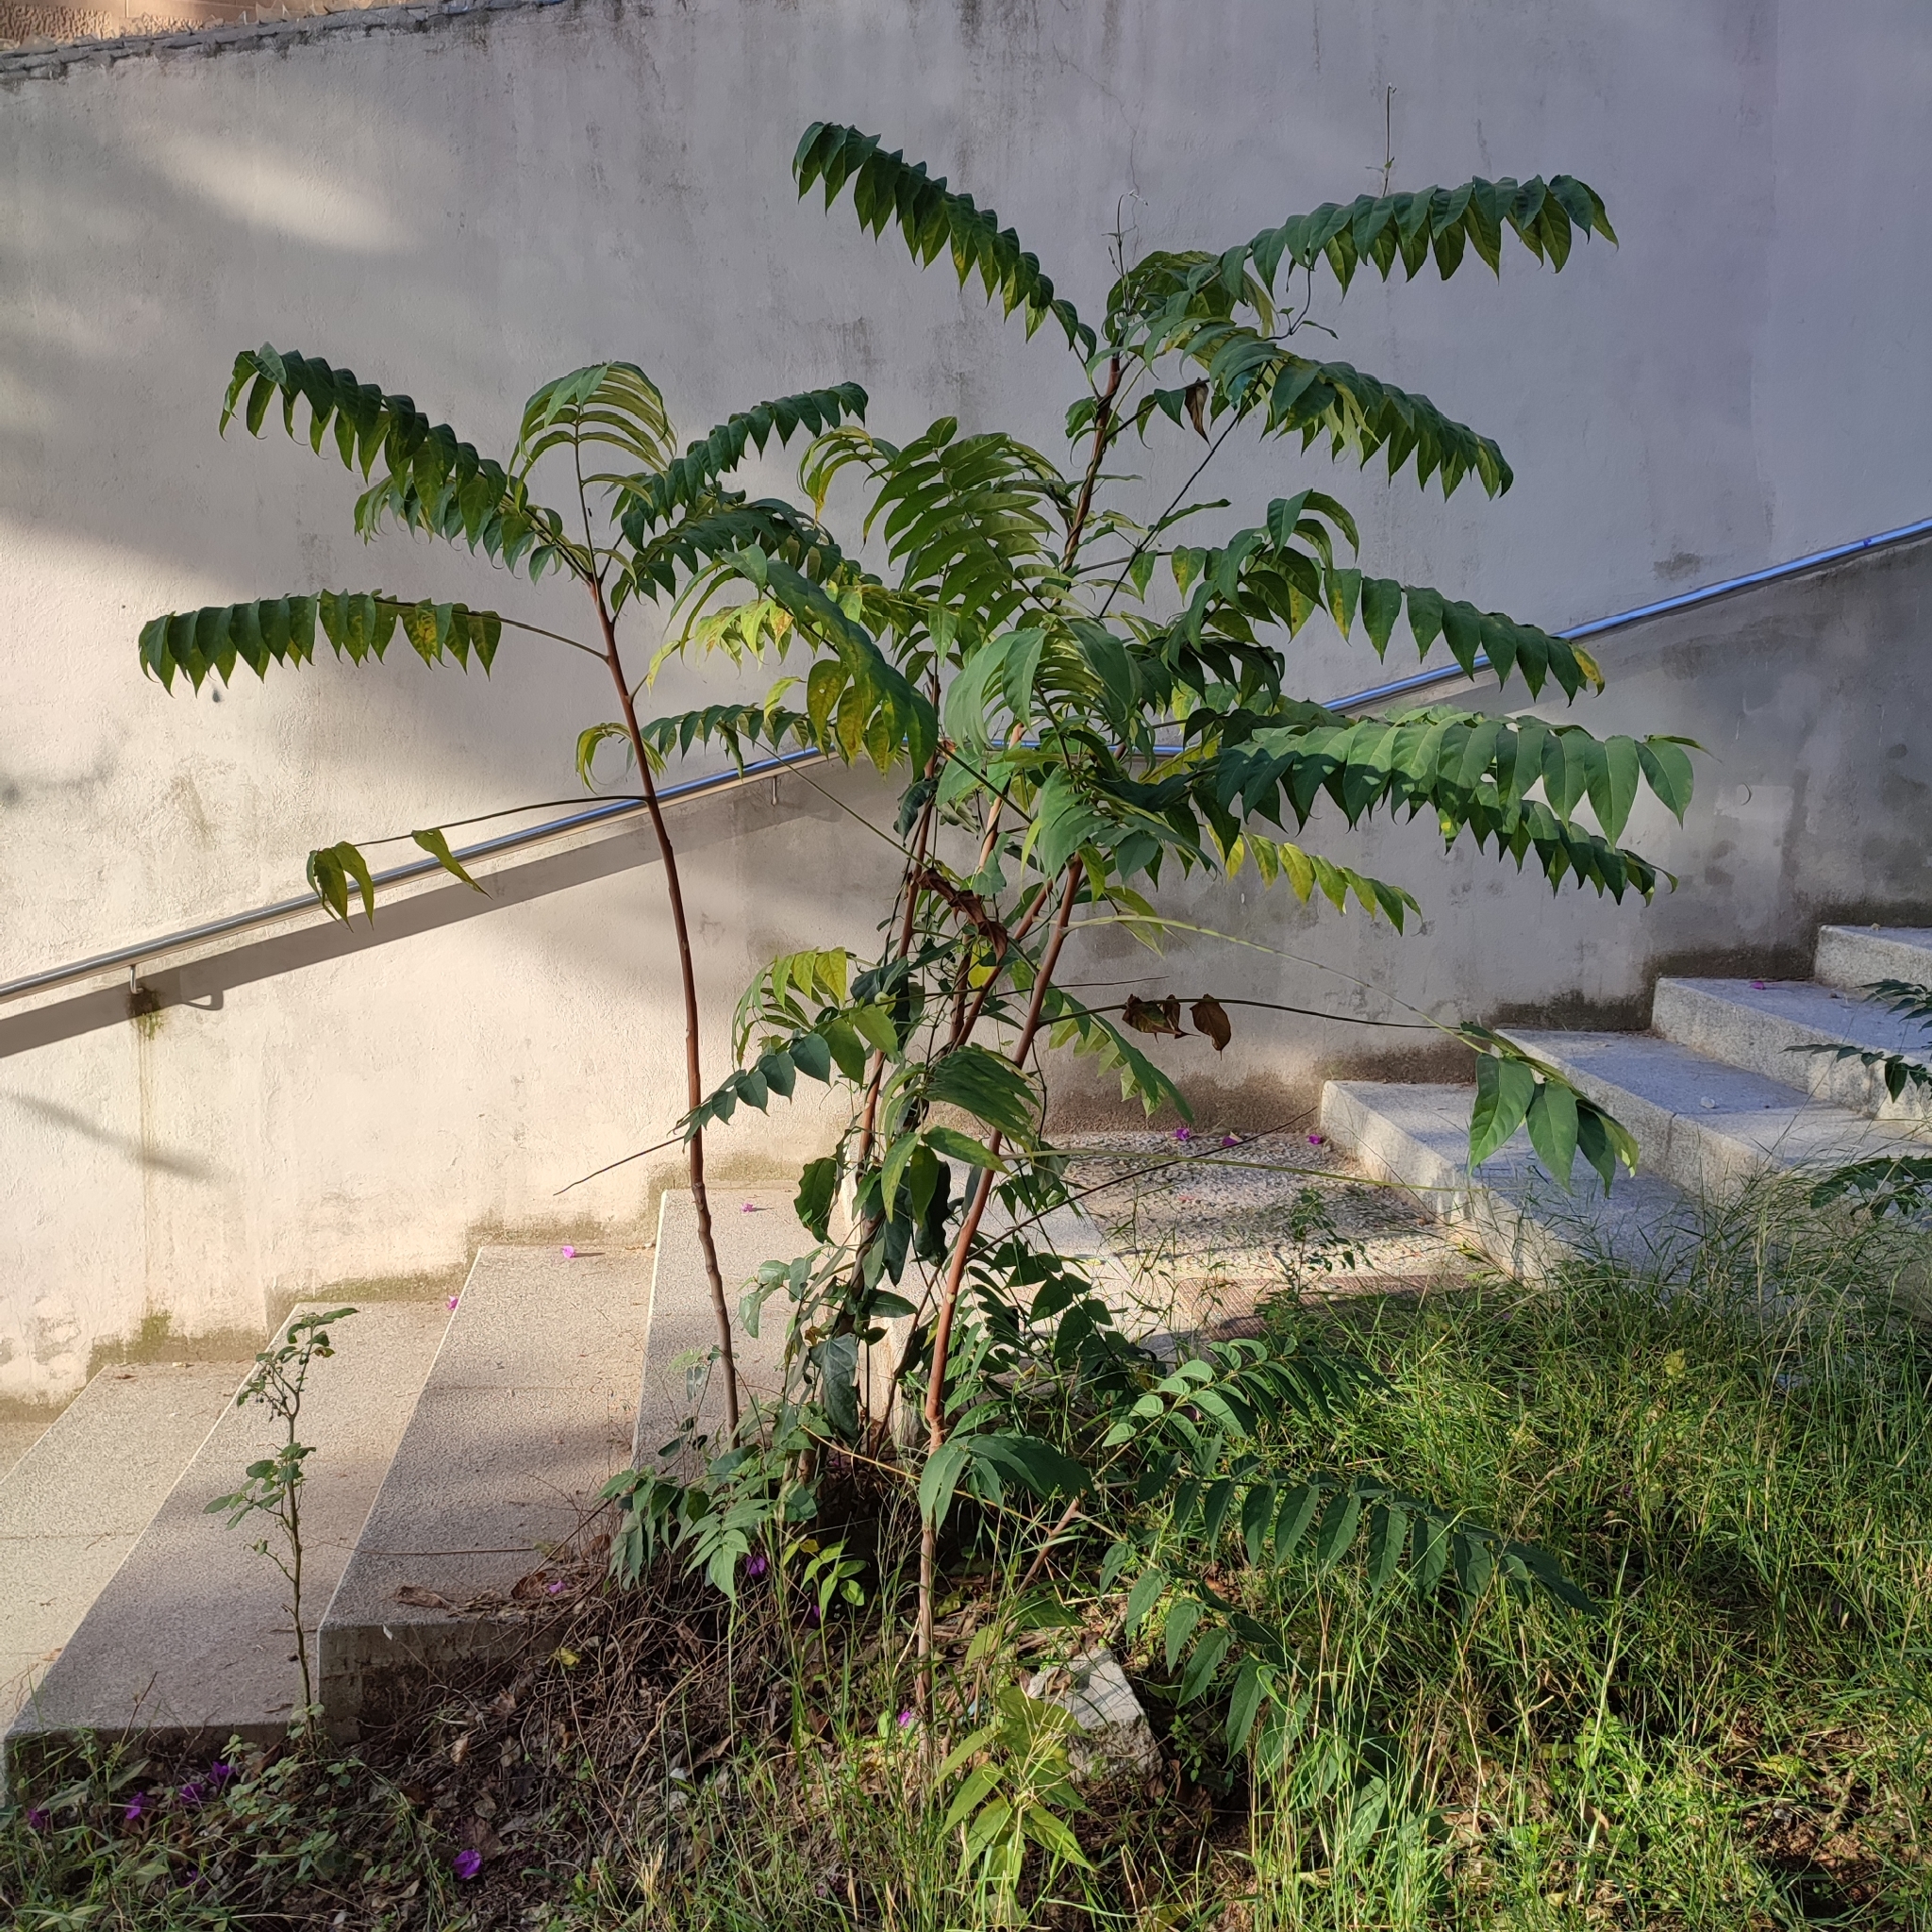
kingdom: Plantae
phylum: Tracheophyta
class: Magnoliopsida
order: Sapindales
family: Simaroubaceae
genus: Ailanthus
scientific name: Ailanthus altissima
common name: Tree-of-heaven
